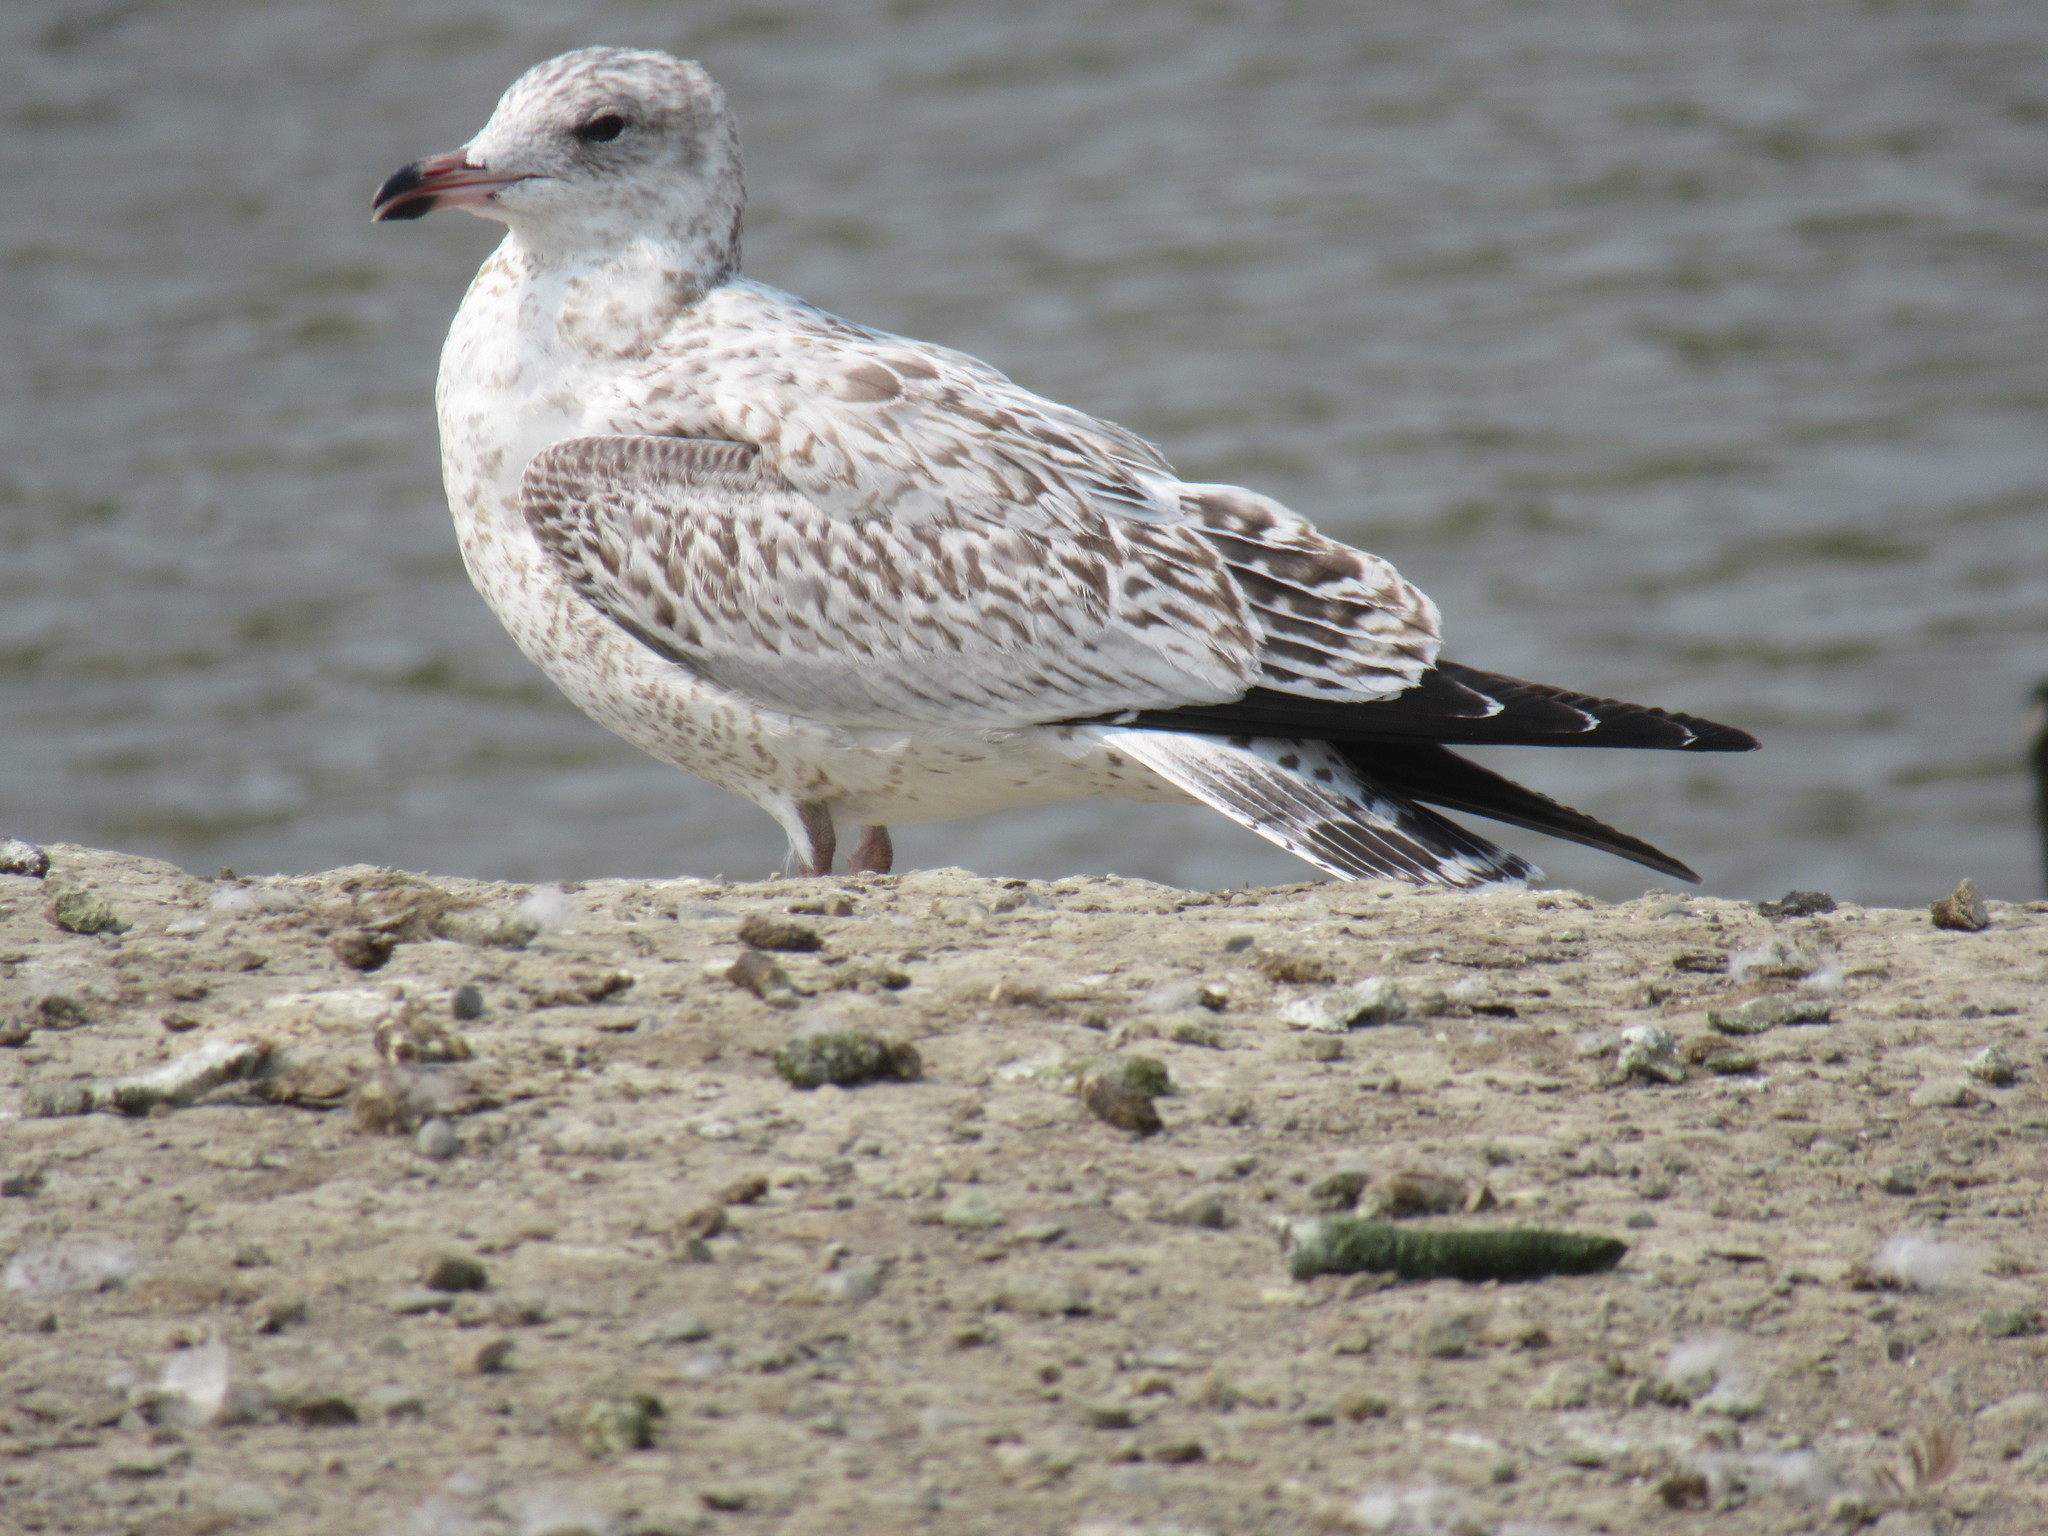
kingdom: Animalia
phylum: Chordata
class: Aves
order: Charadriiformes
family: Laridae
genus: Larus
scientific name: Larus delawarensis
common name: Ring-billed gull
